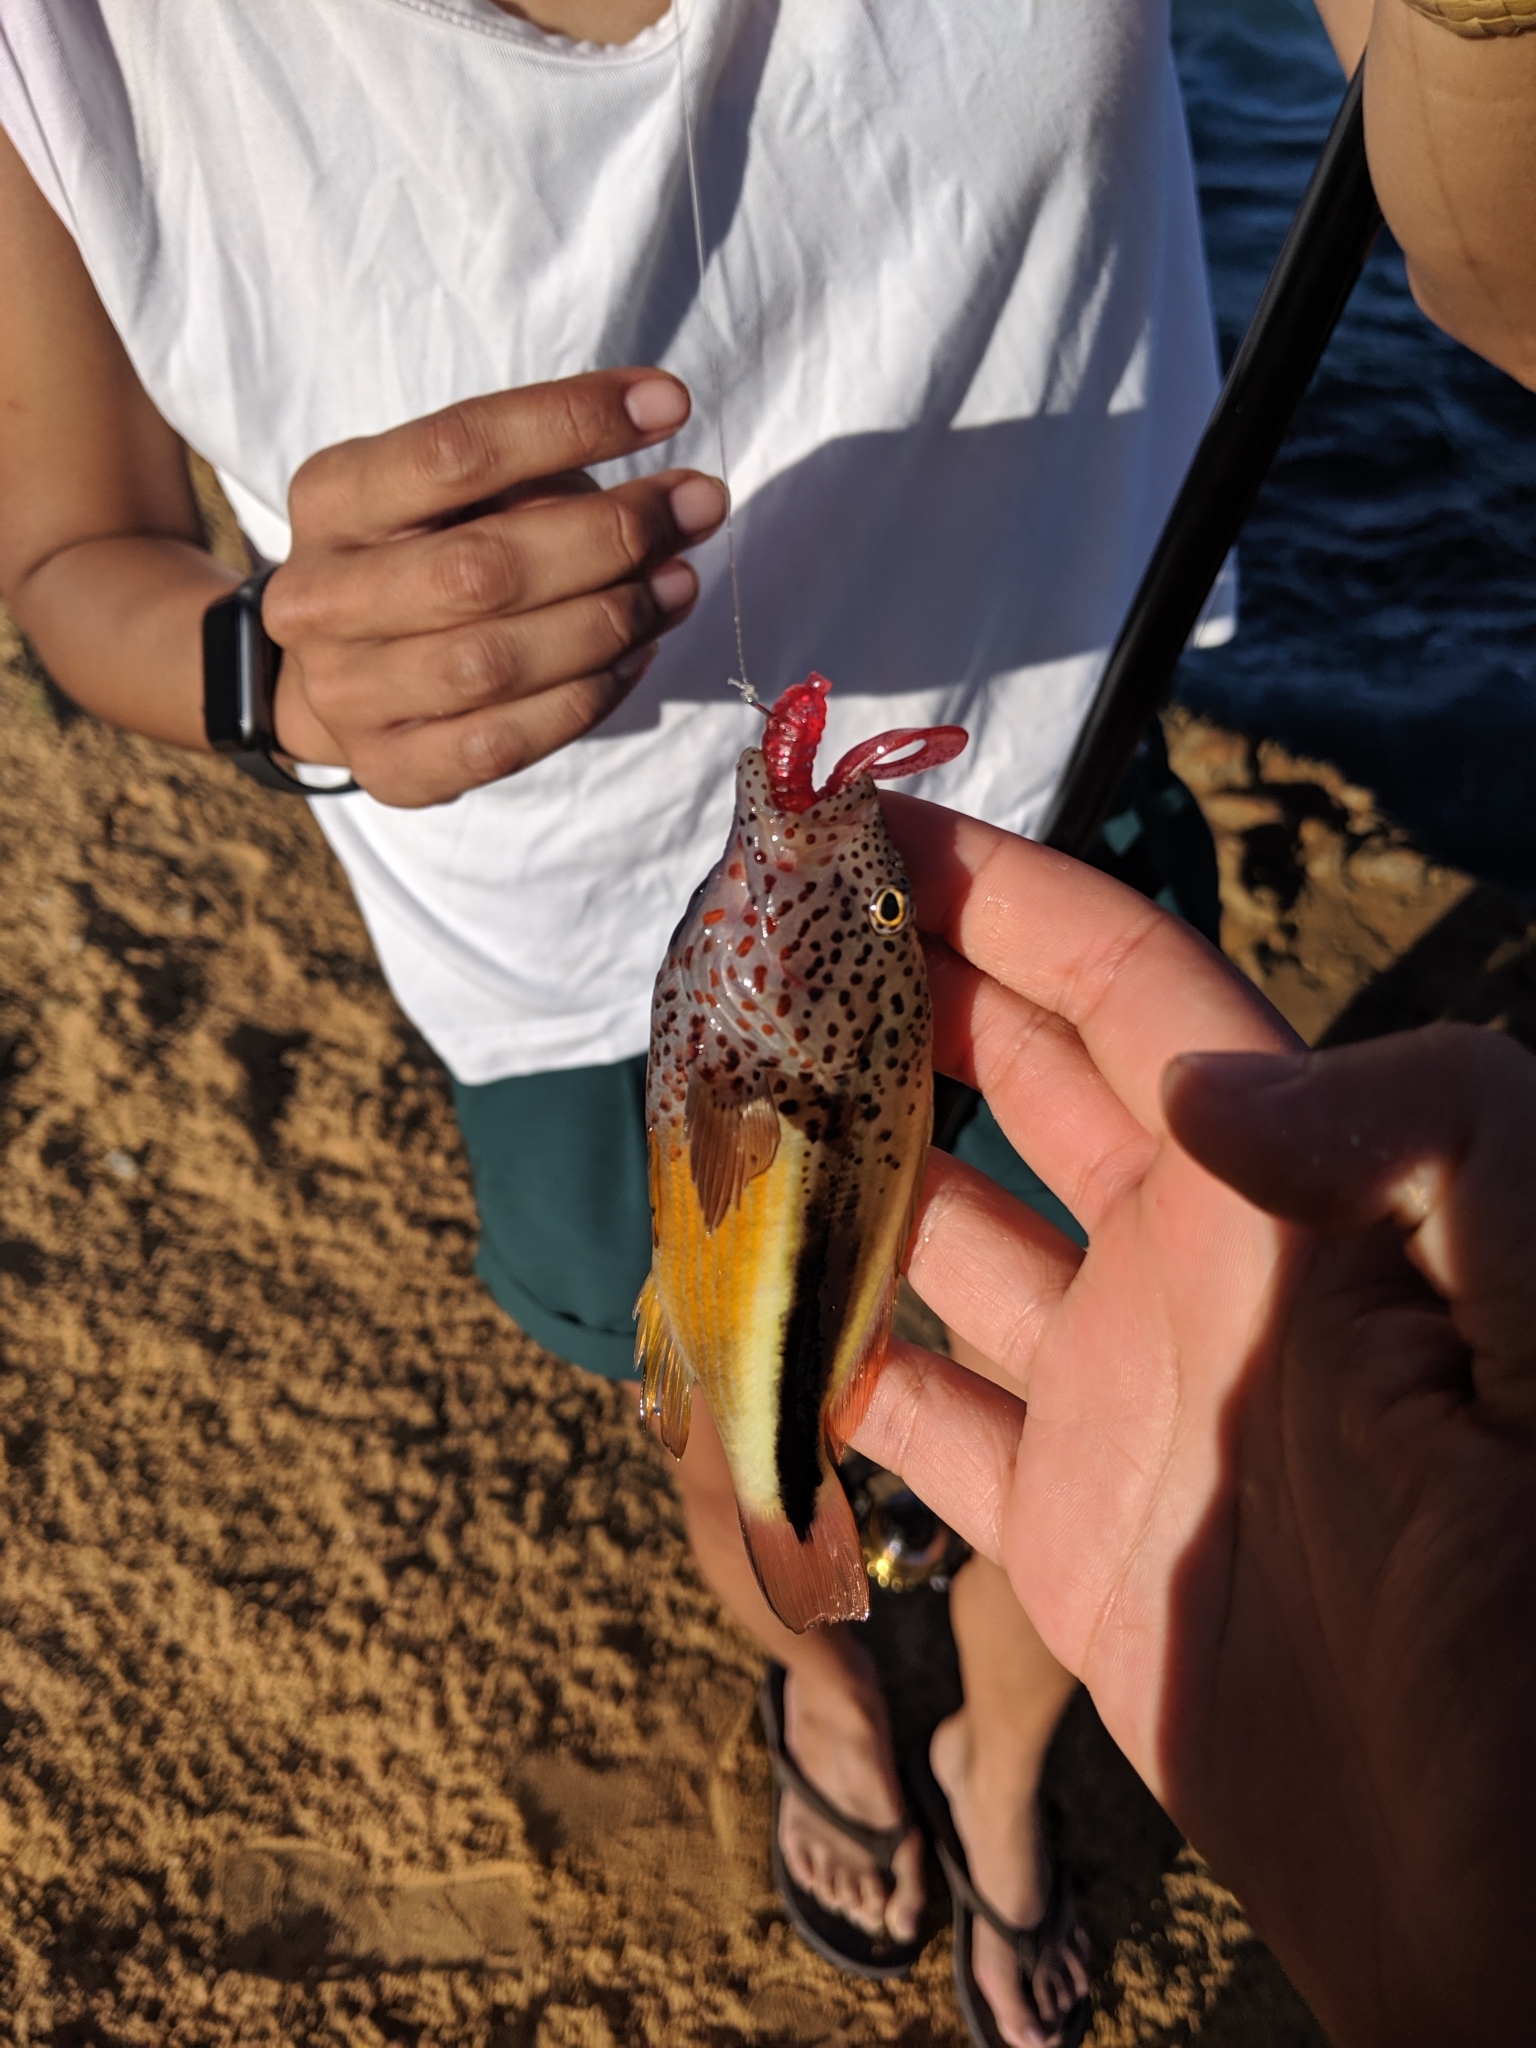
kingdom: Animalia
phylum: Chordata
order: Perciformes
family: Cirrhitidae
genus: Paracirrhites
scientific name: Paracirrhites forsteri
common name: Freckled hawkfish
